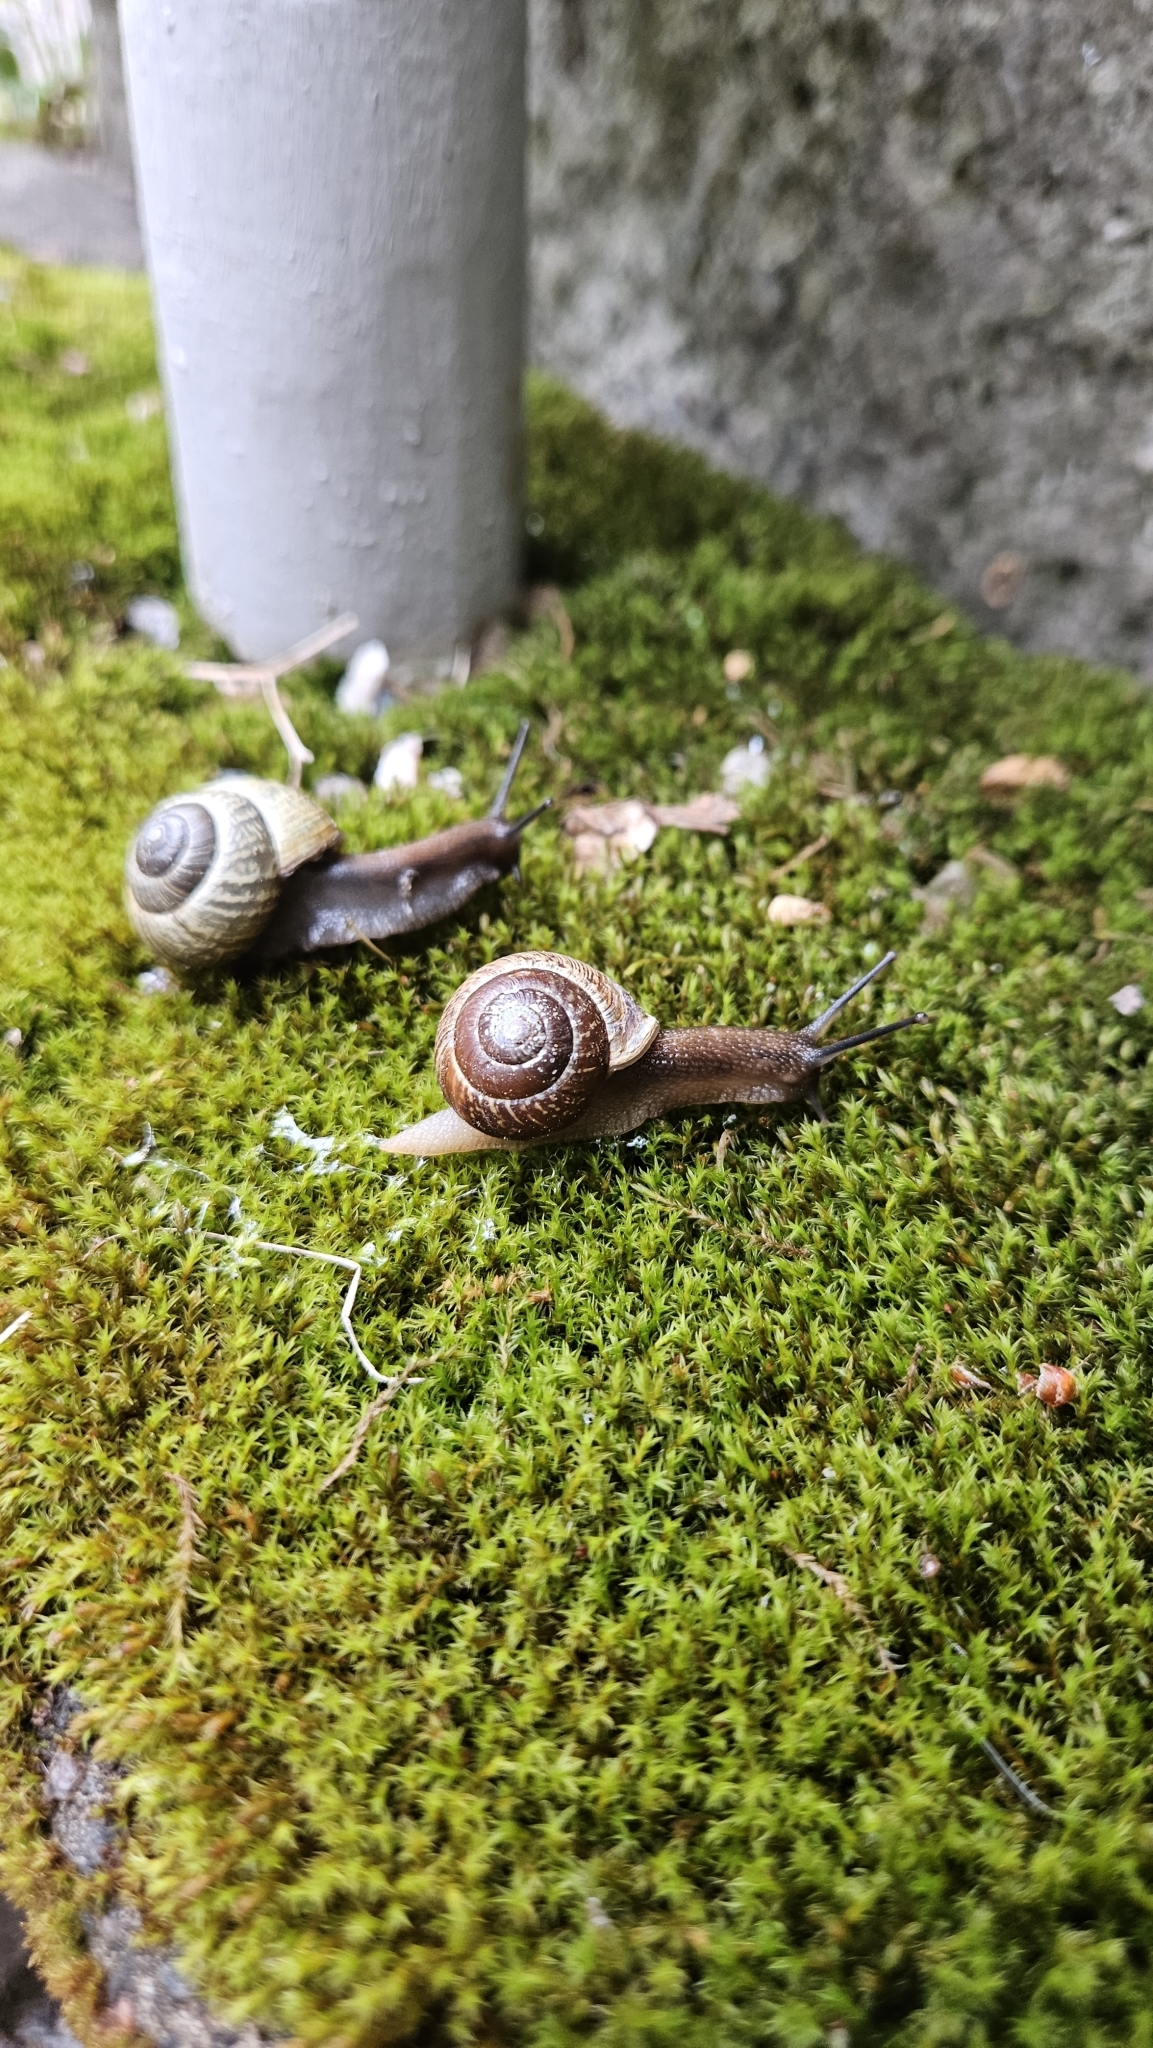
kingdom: Animalia
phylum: Mollusca
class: Gastropoda
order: Stylommatophora
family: Helicidae
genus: Arianta
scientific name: Arianta arbustorum
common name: Copse snail
